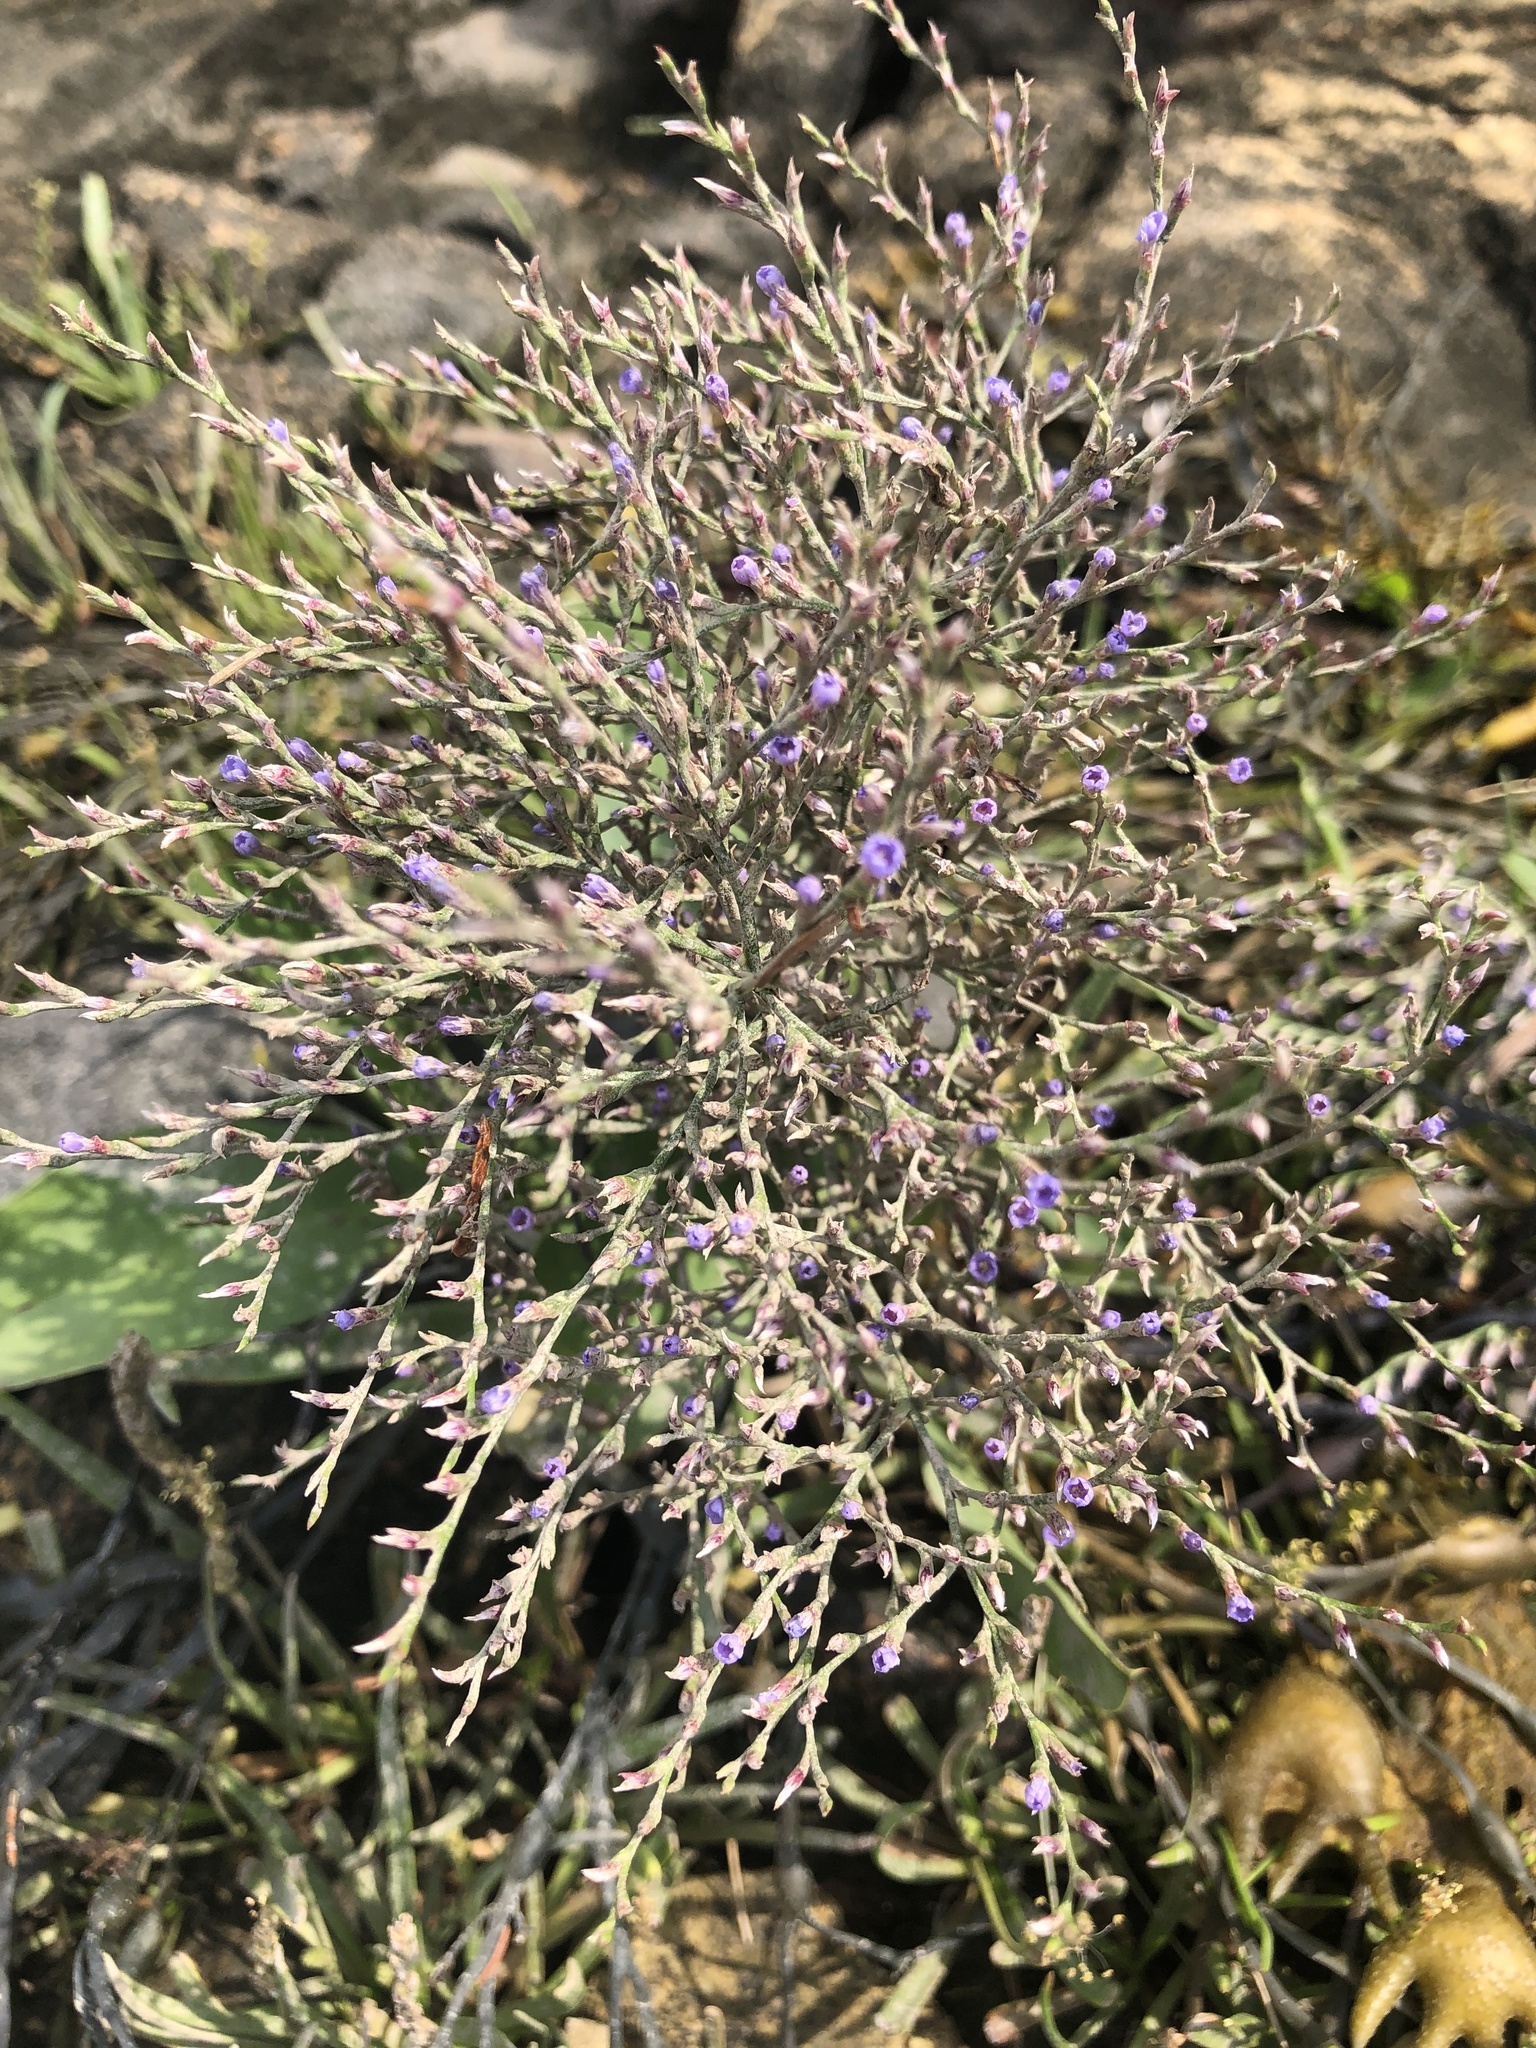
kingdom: Plantae
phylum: Tracheophyta
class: Magnoliopsida
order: Caryophyllales
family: Plumbaginaceae
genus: Limonium
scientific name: Limonium carolinianum
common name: Carolina sea lavender
